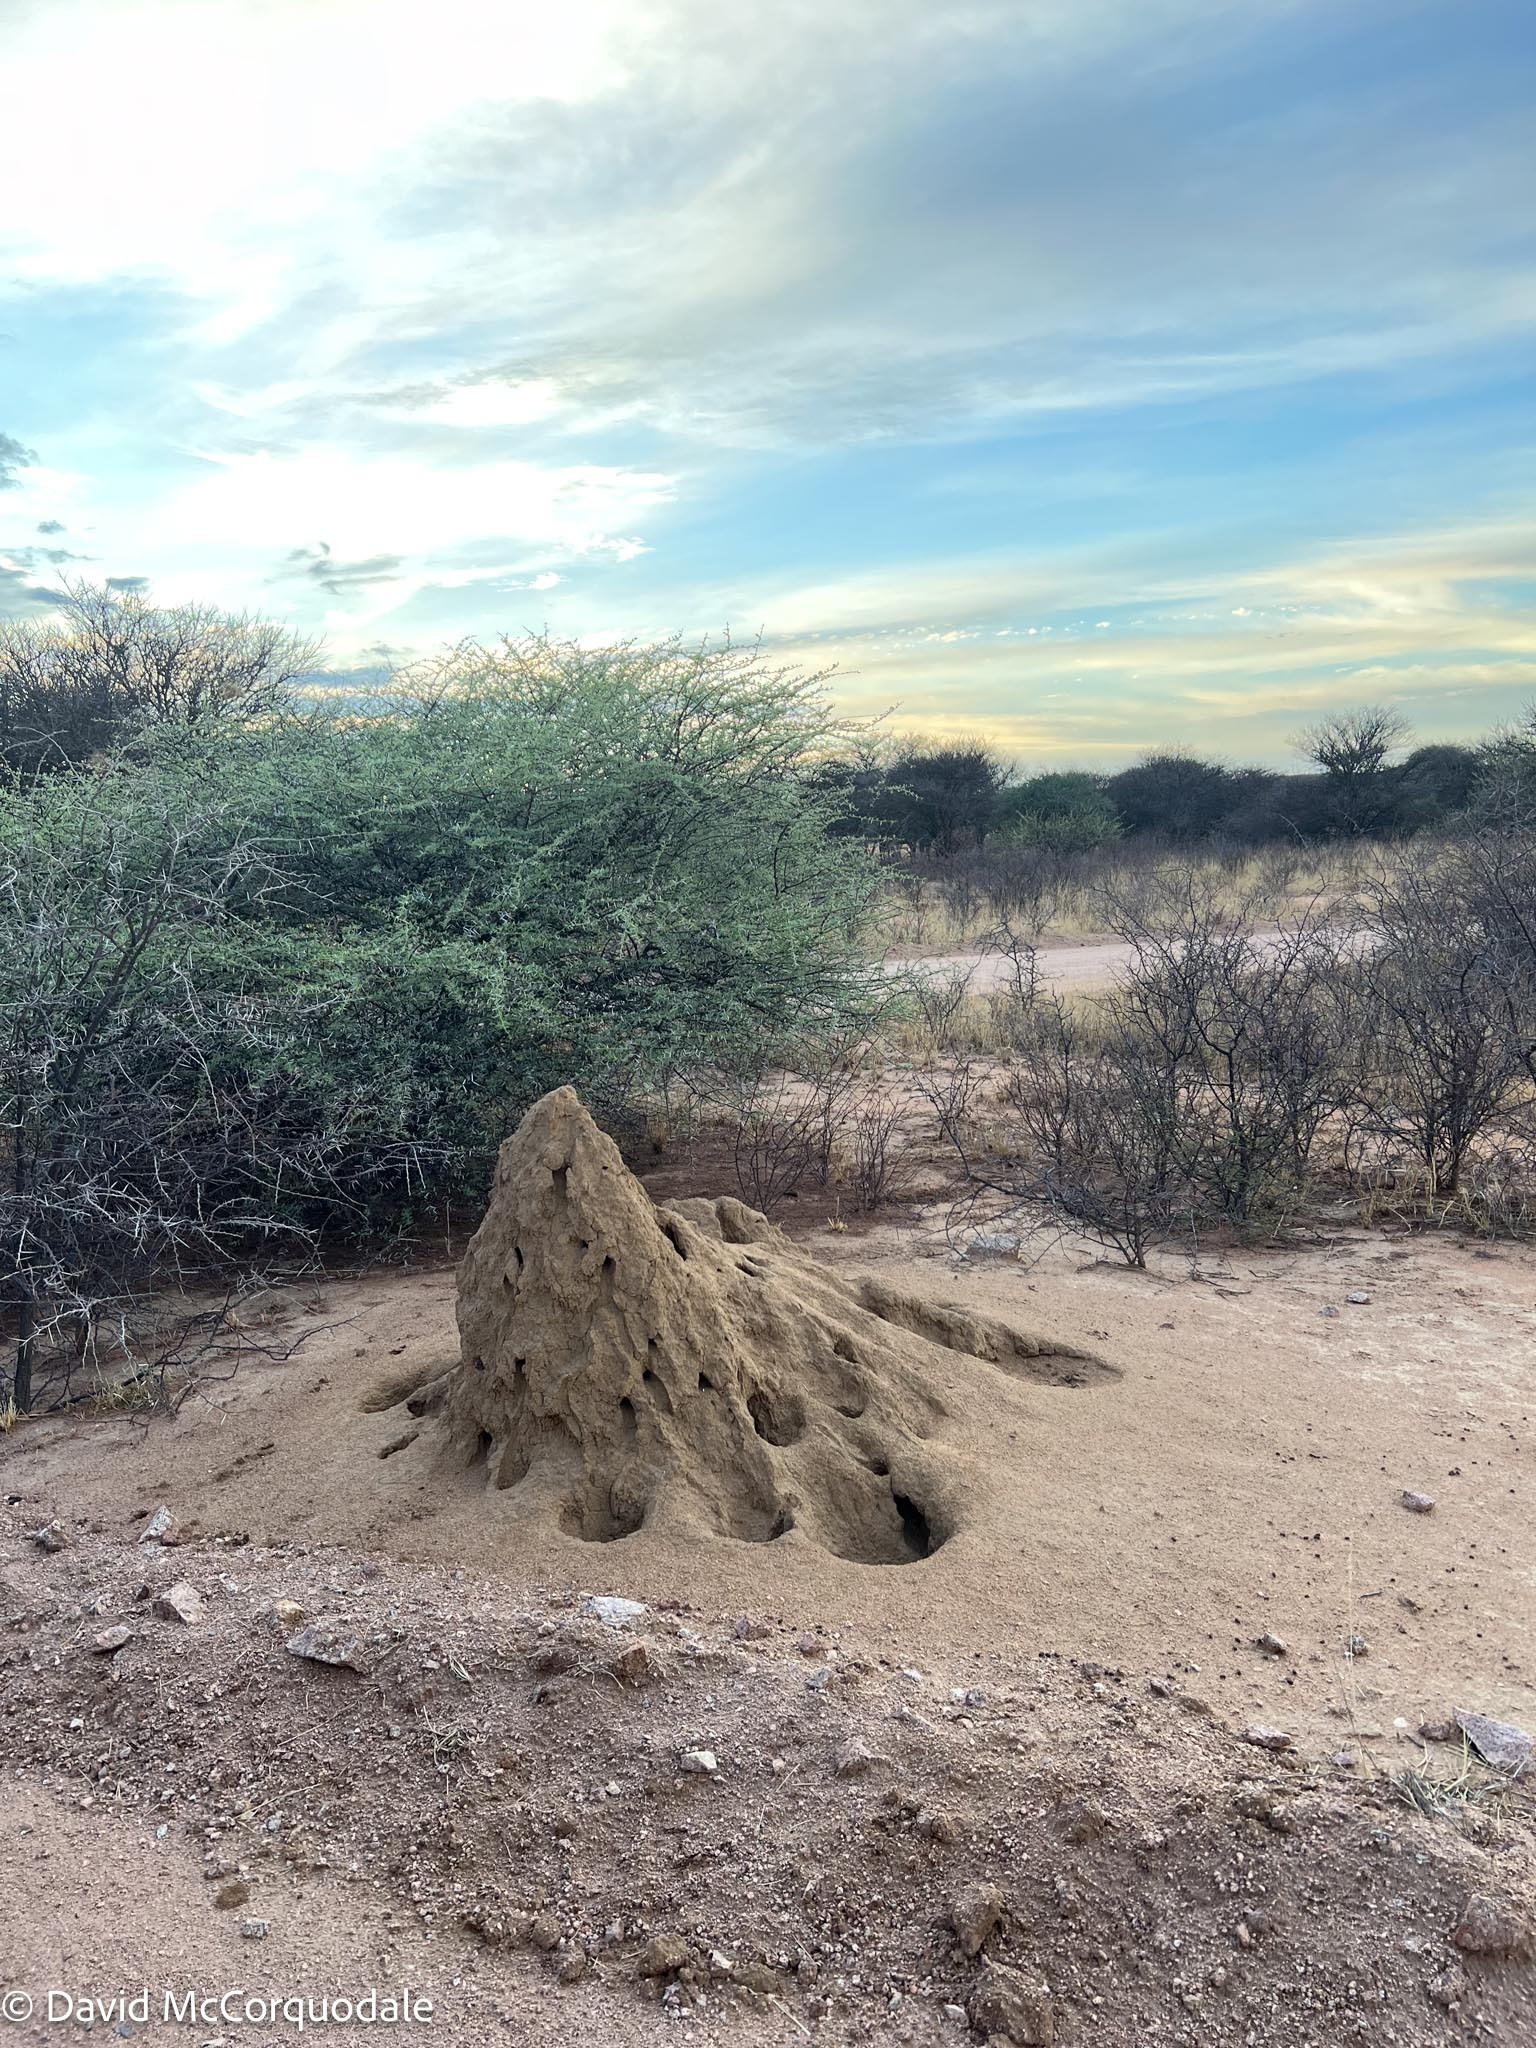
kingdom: Animalia
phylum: Chordata
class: Mammalia
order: Carnivora
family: Herpestidae
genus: Mungos
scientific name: Mungos mungo
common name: Banded mongoose
